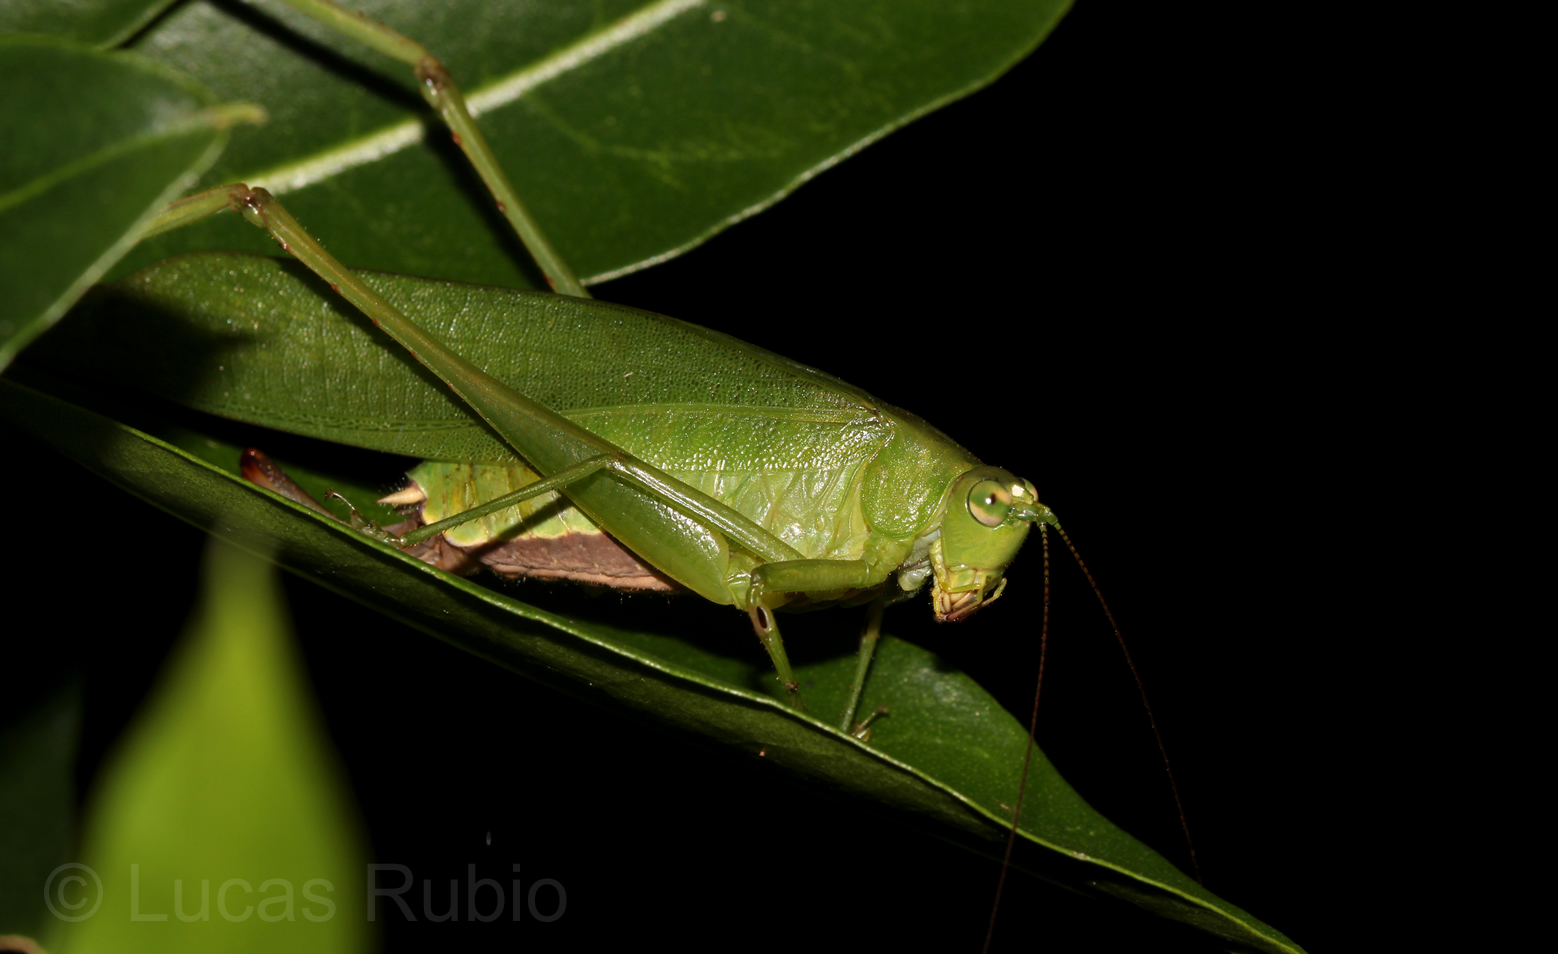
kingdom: Animalia
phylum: Arthropoda
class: Insecta
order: Orthoptera
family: Tettigoniidae
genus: Ceraia
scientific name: Ceraia cornutoides
